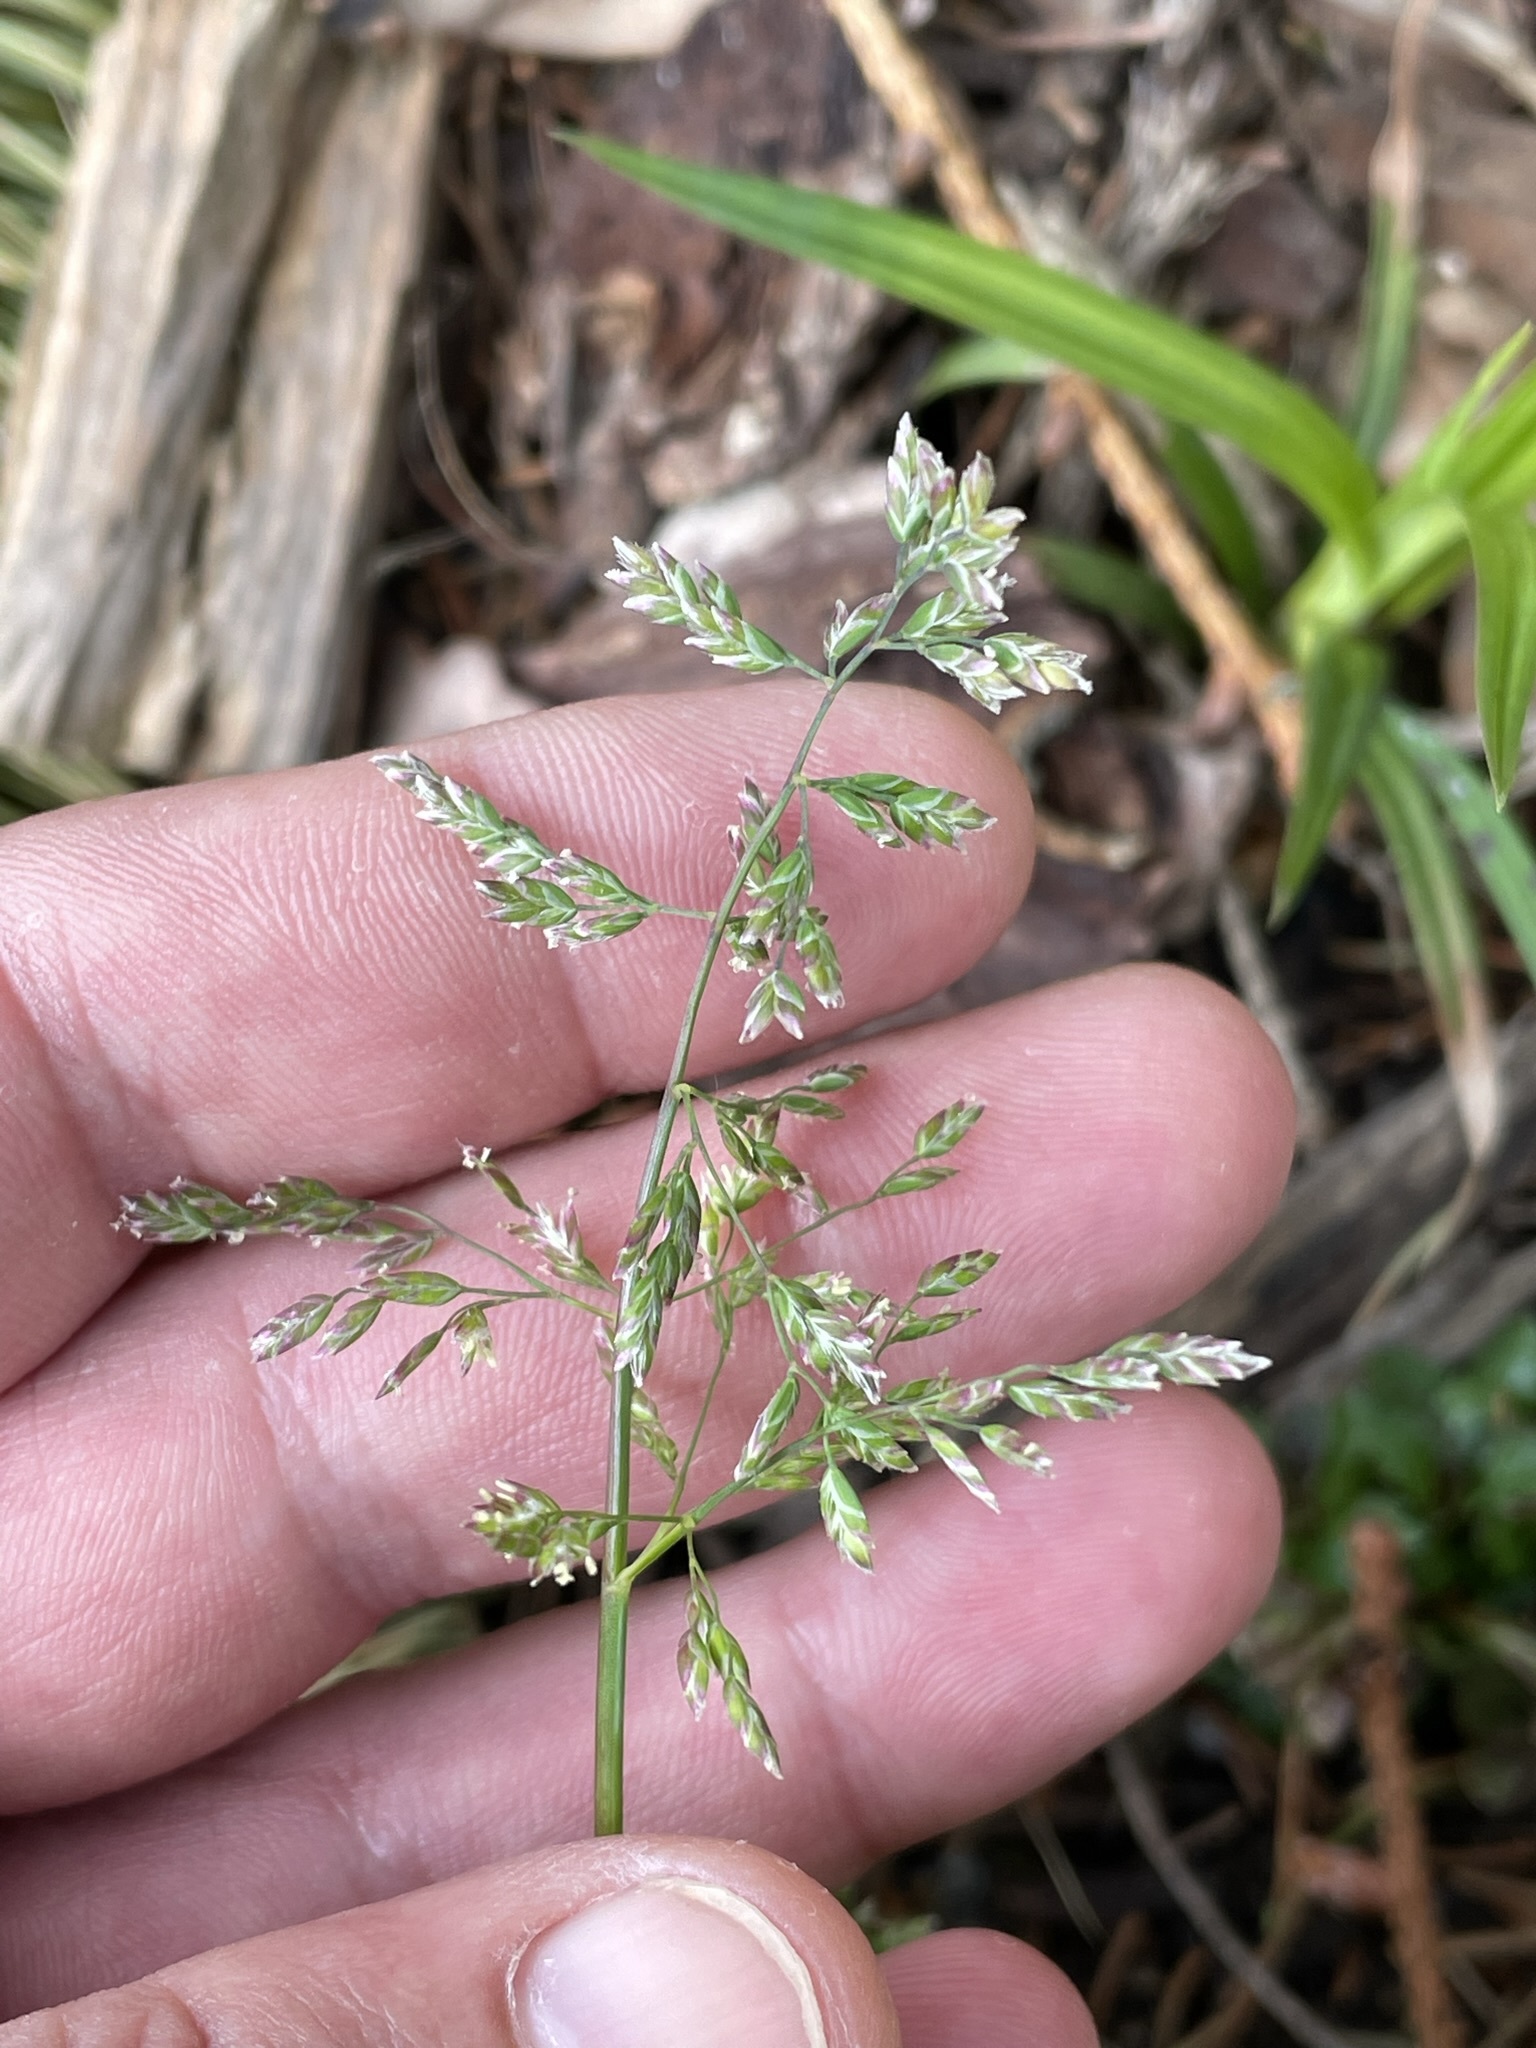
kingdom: Plantae
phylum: Tracheophyta
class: Liliopsida
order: Poales
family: Poaceae
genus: Poa
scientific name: Poa annua
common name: Annual bluegrass
